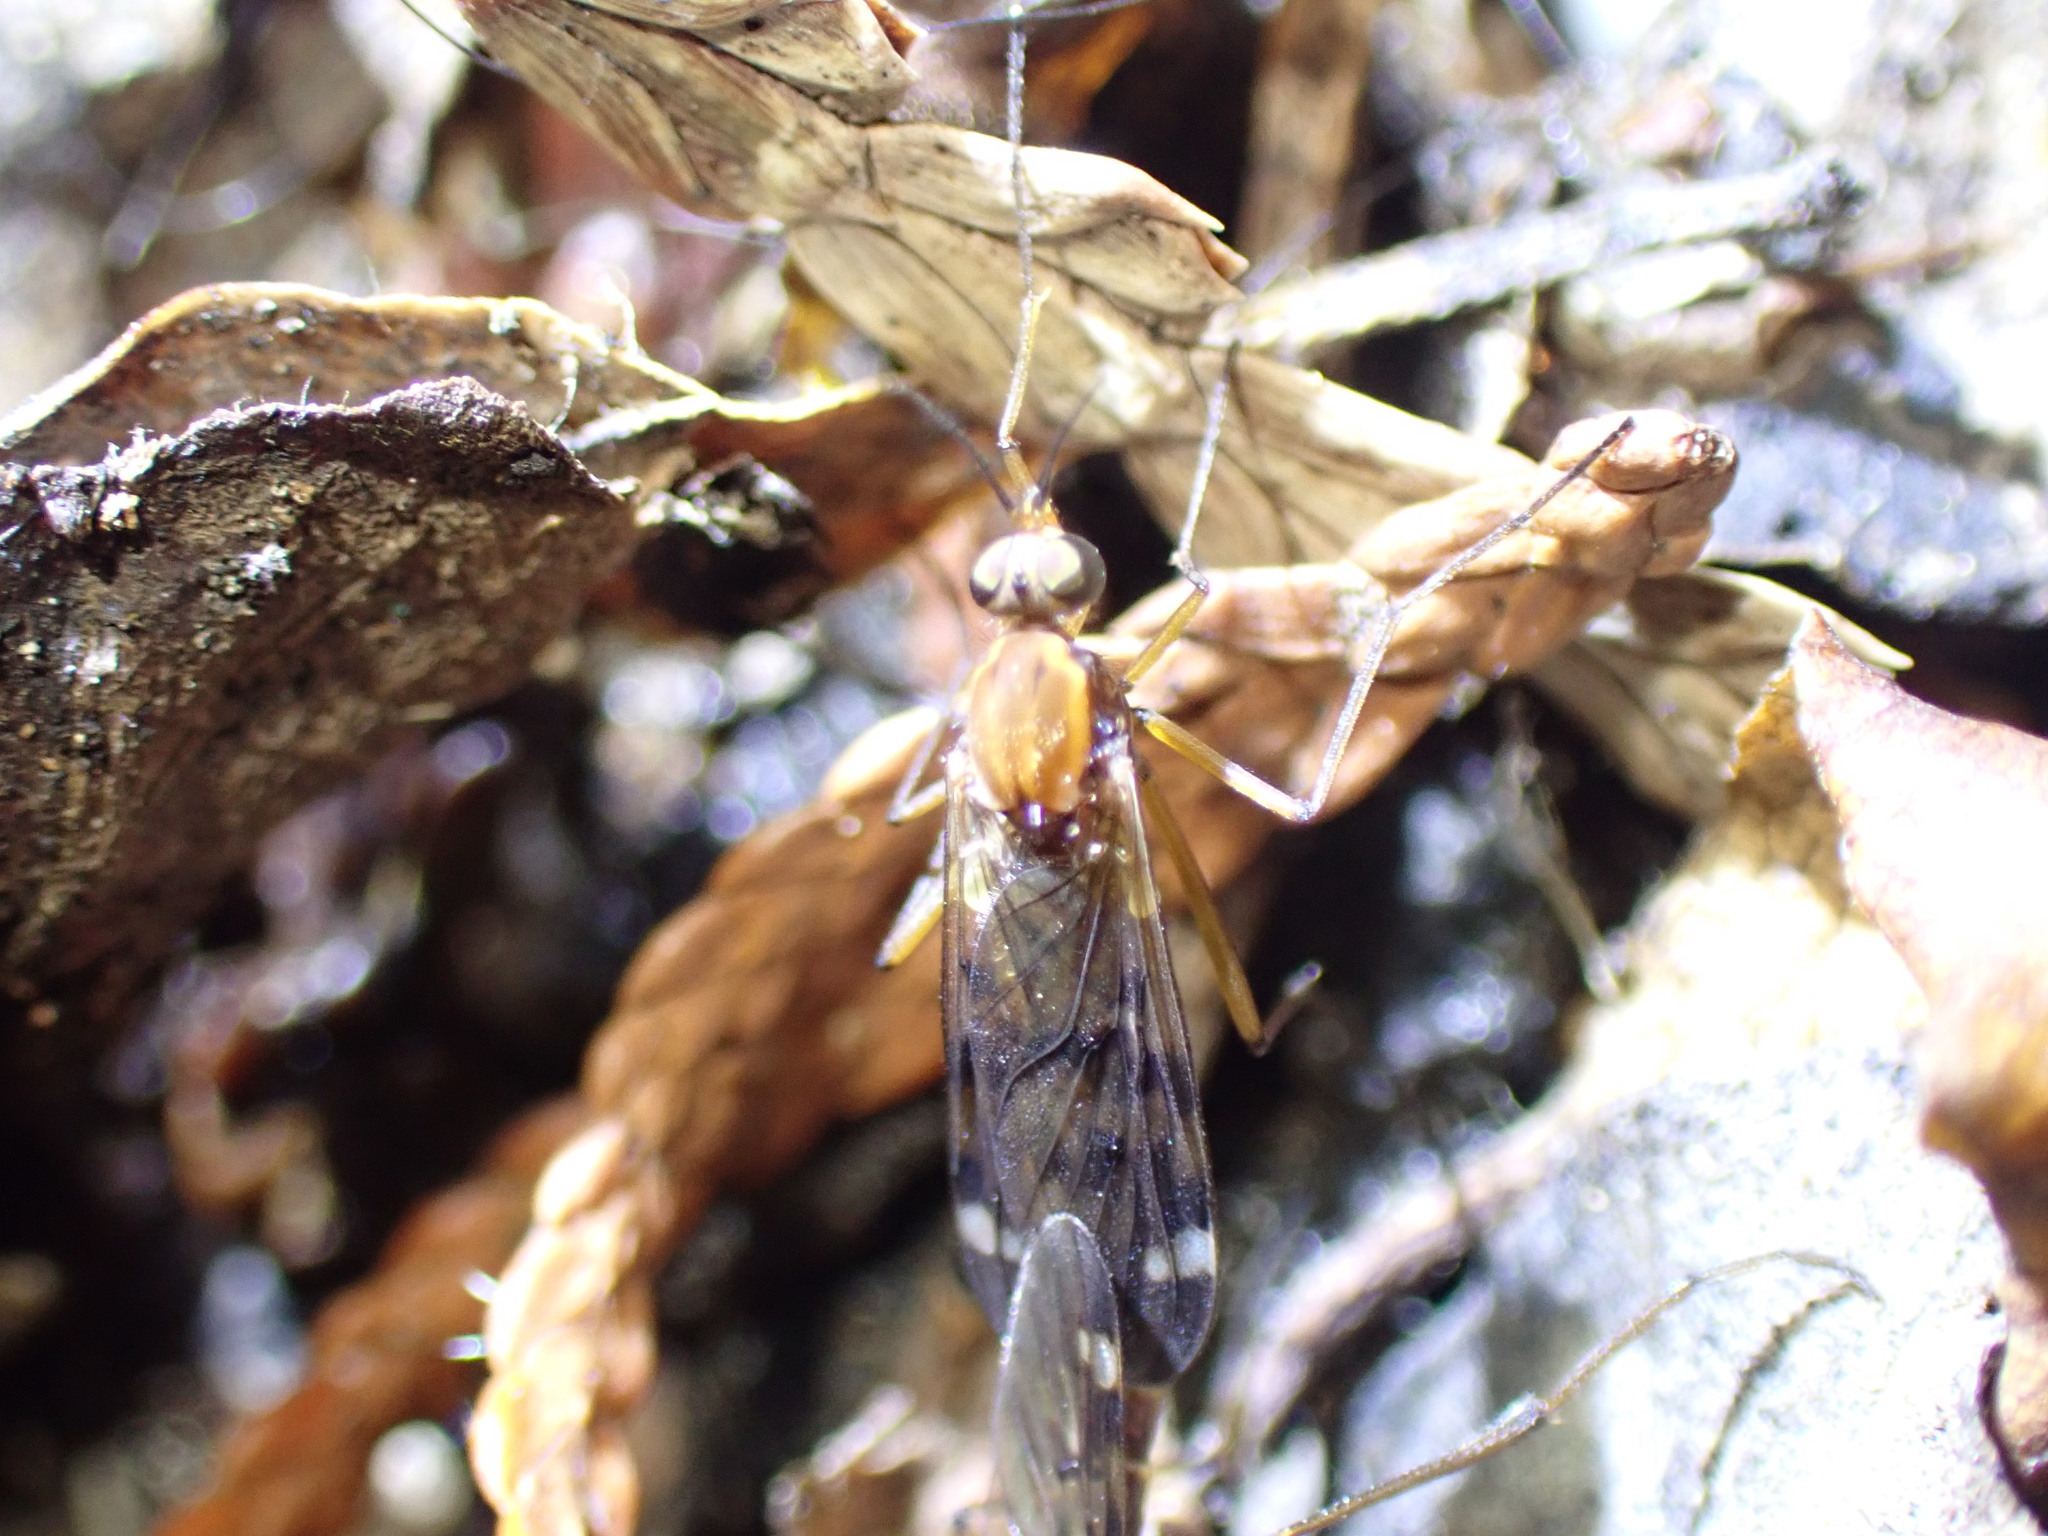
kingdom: Animalia
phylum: Arthropoda
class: Insecta
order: Diptera
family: Anisopodidae
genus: Sylvicola
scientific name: Sylvicola notatus
